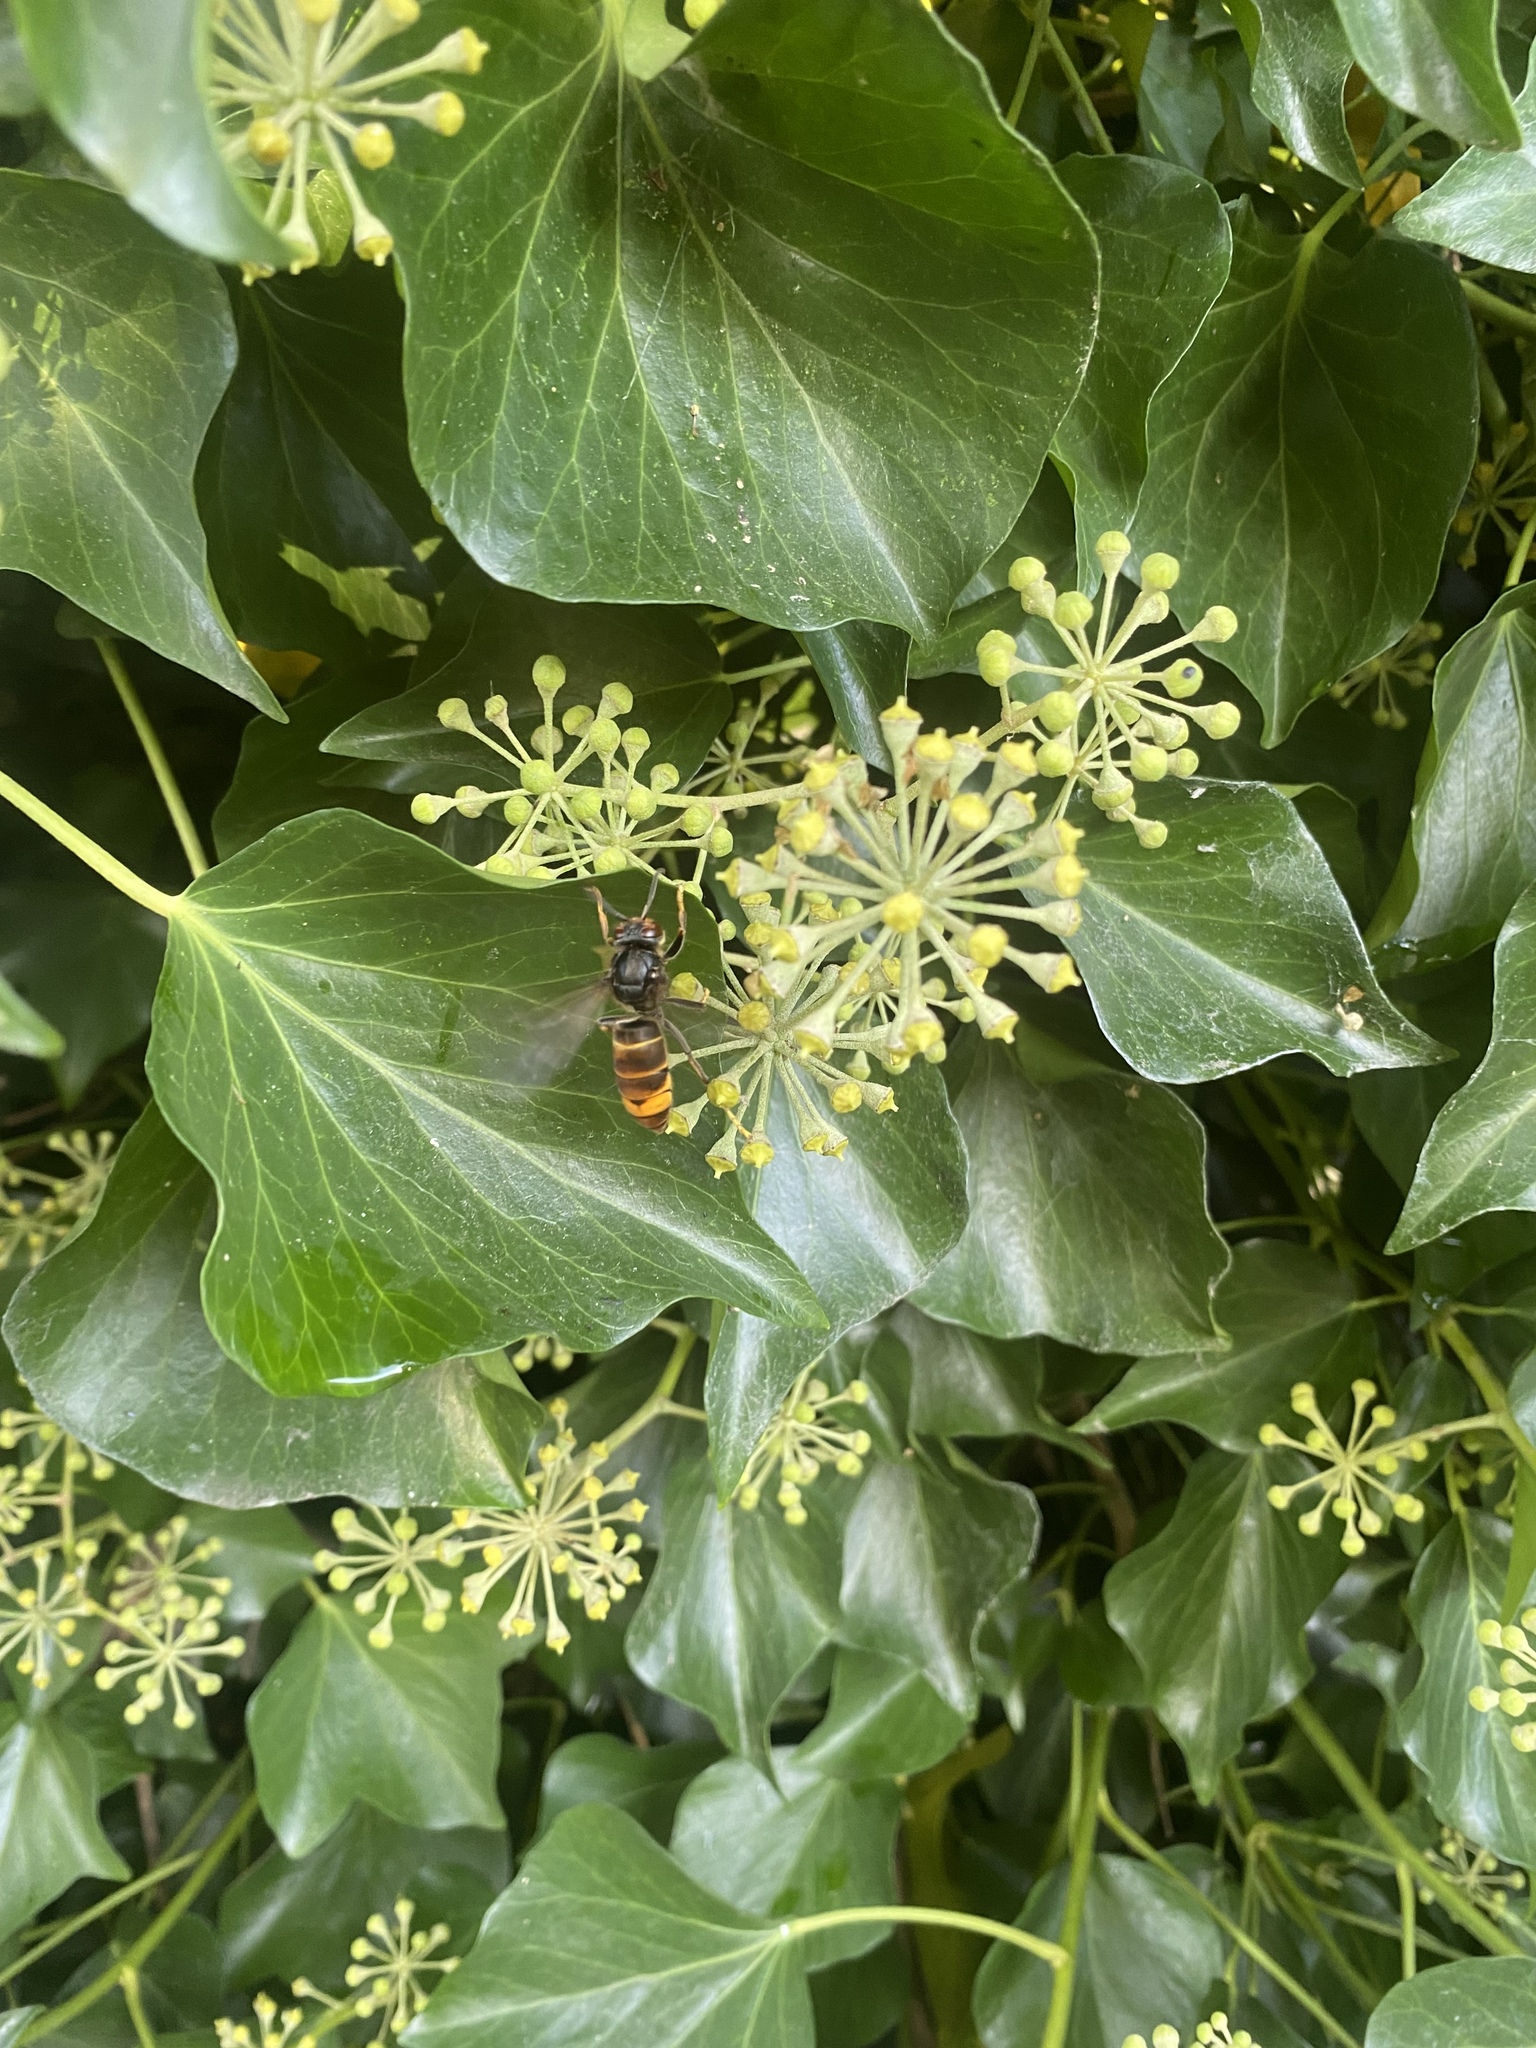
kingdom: Animalia
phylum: Arthropoda
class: Insecta
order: Hymenoptera
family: Vespidae
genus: Vespa
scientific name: Vespa velutina
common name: Asian hornet
